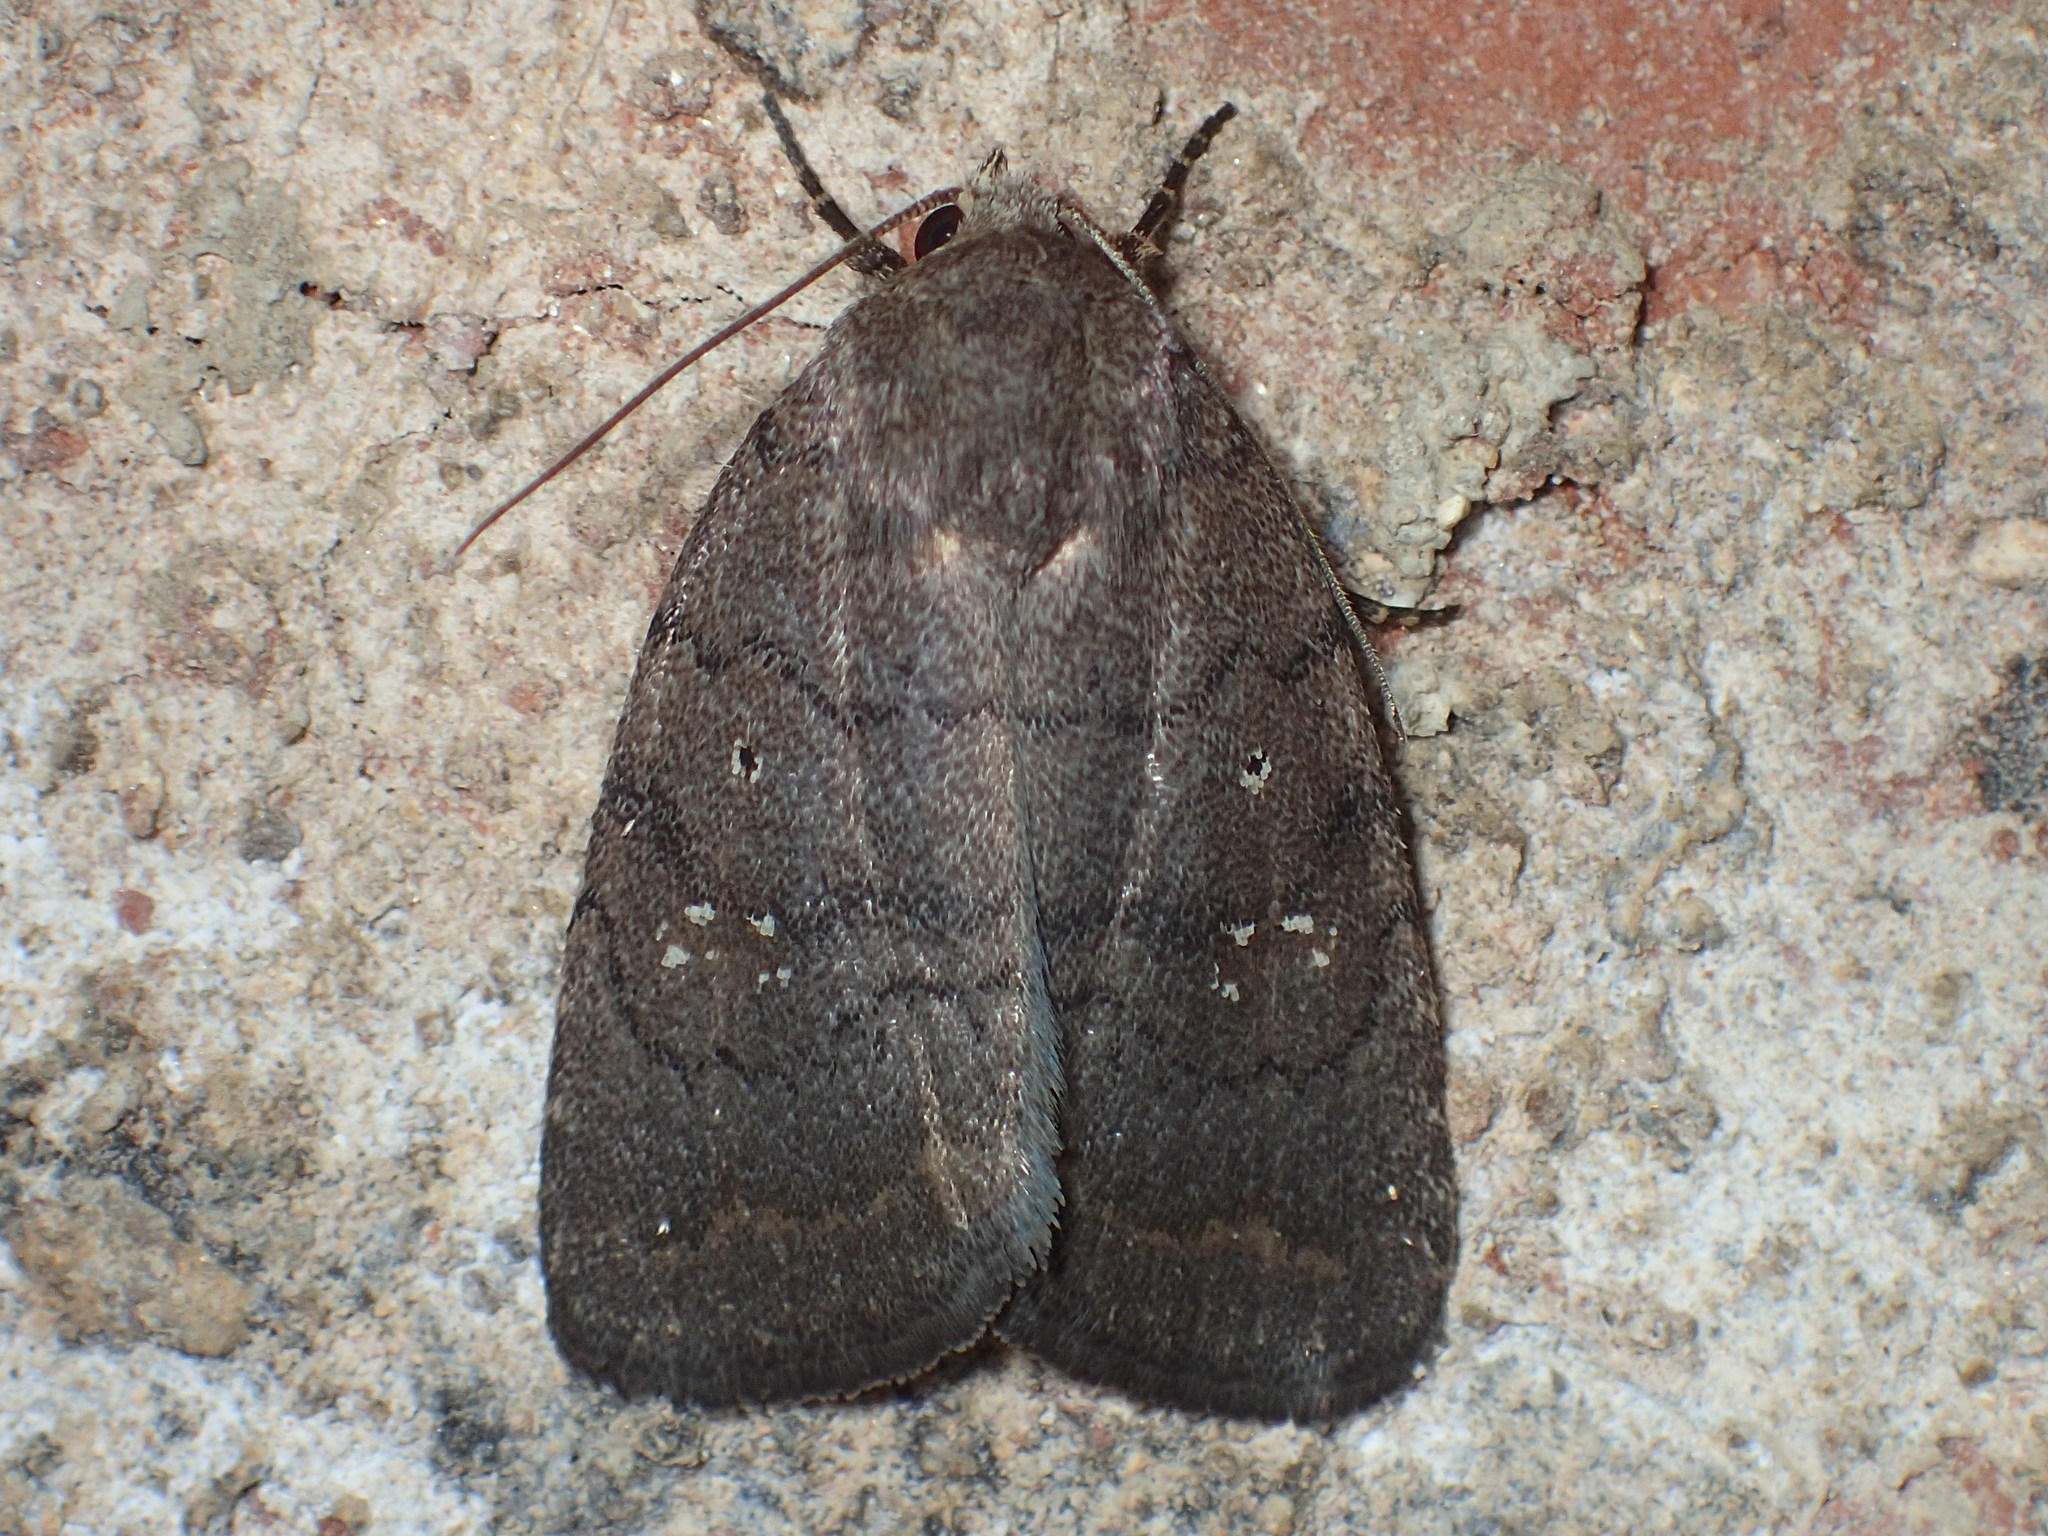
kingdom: Animalia
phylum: Arthropoda
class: Insecta
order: Lepidoptera
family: Noctuidae
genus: Athetis
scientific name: Athetis tarda
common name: Slowpoke moth
